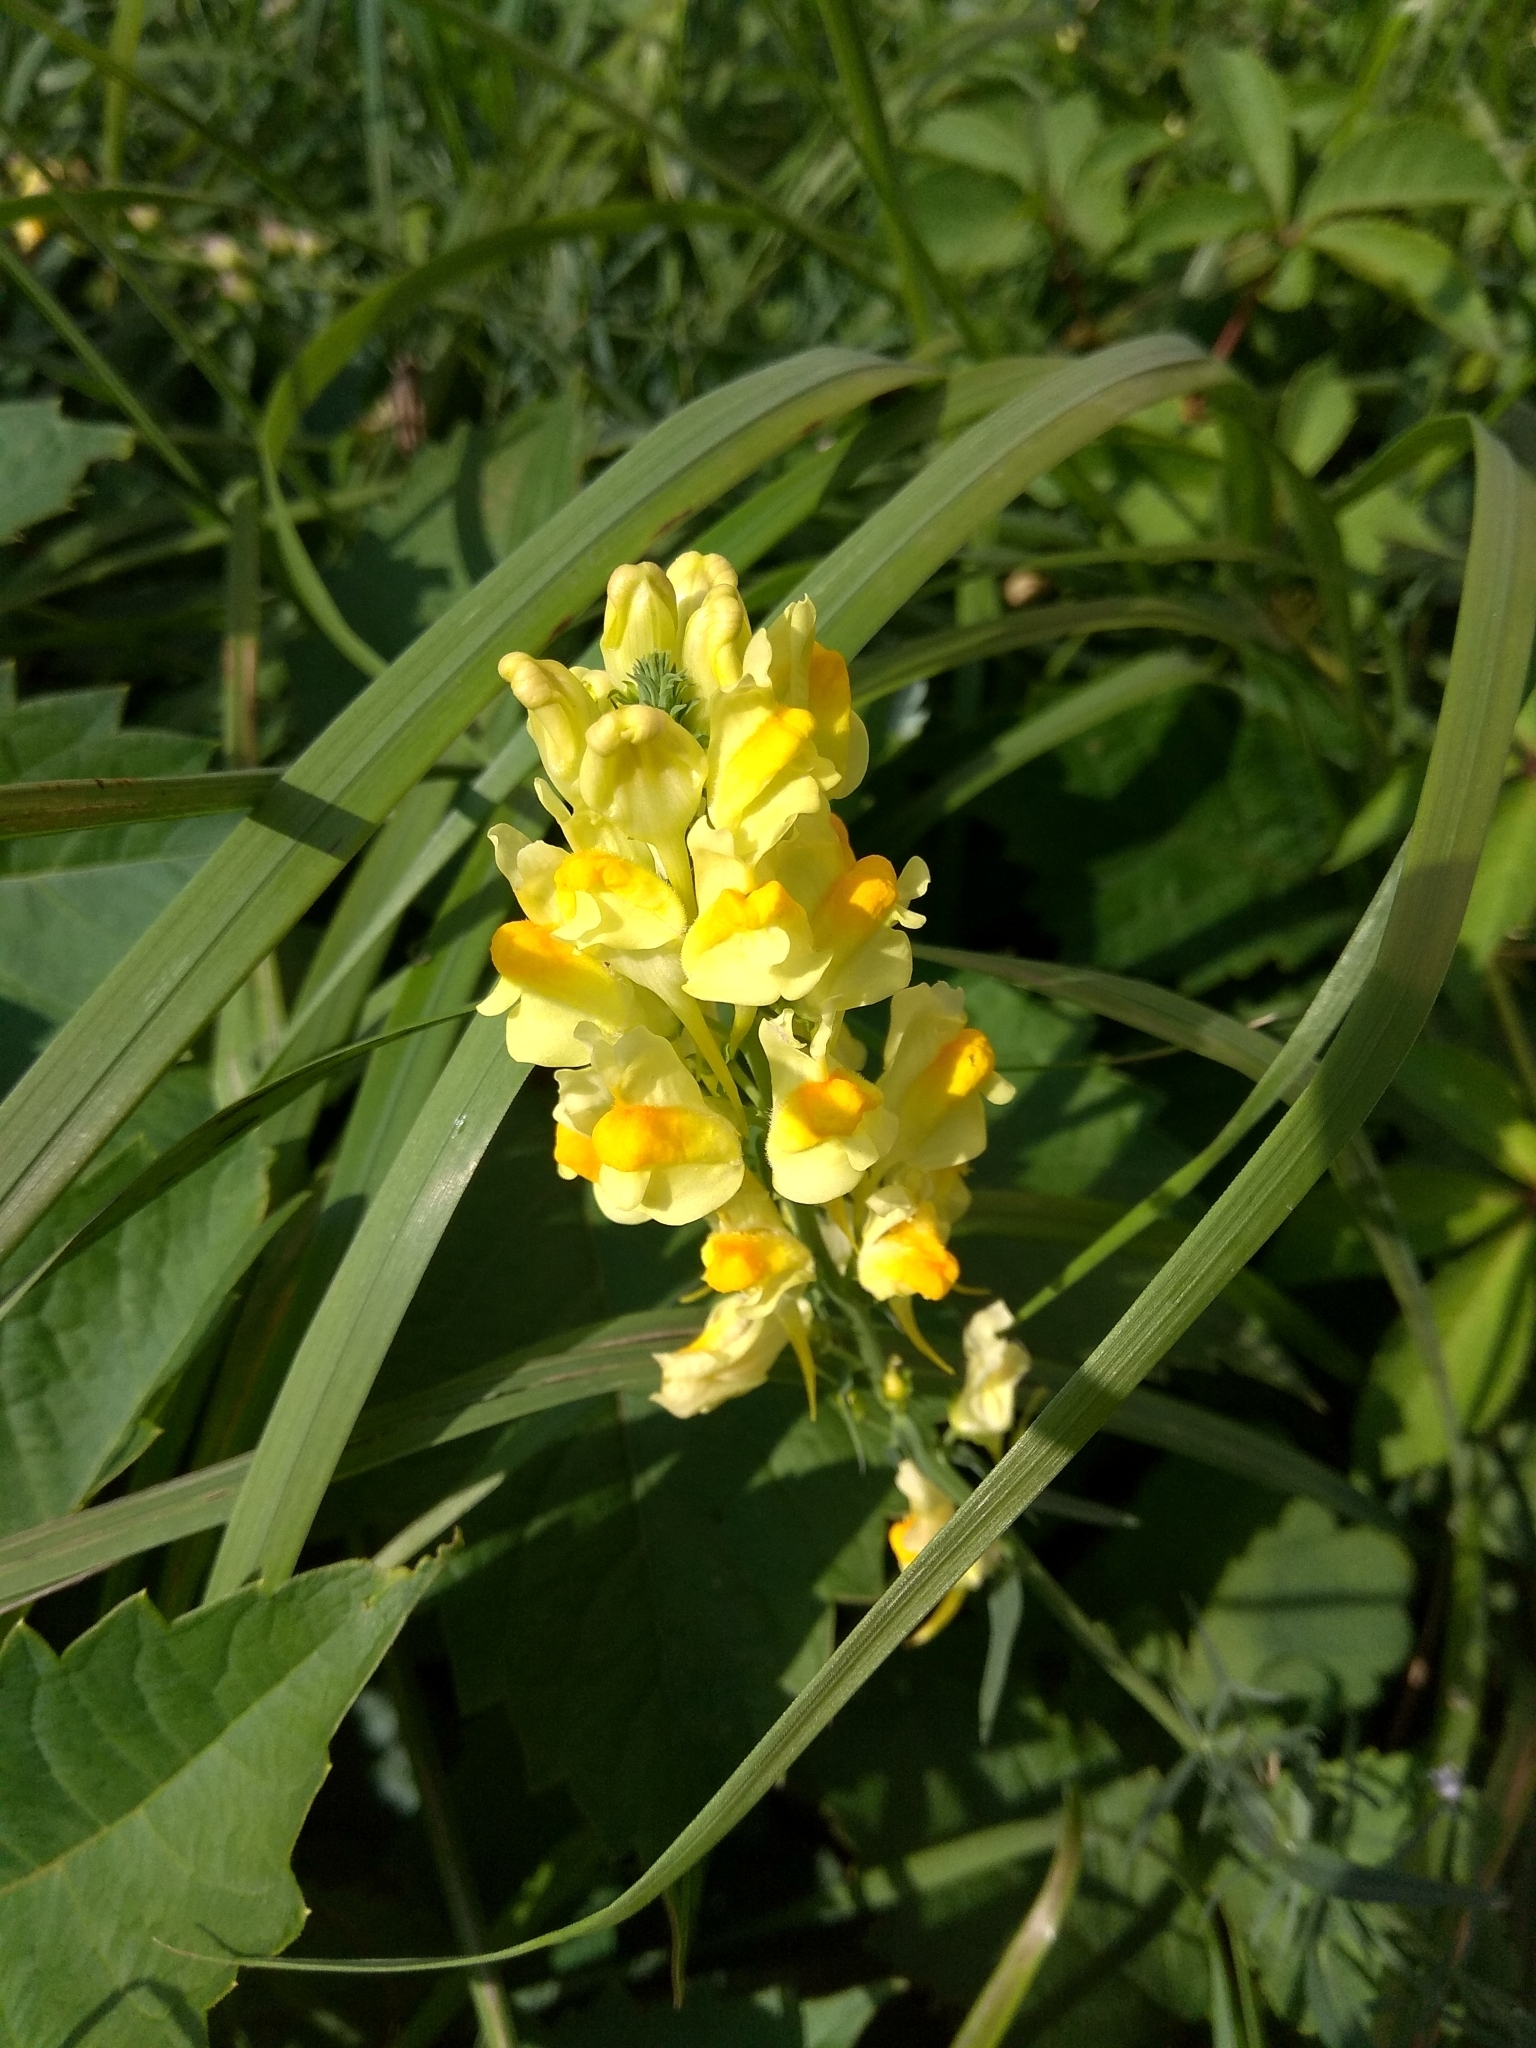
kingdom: Plantae
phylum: Tracheophyta
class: Magnoliopsida
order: Lamiales
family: Plantaginaceae
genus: Linaria
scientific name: Linaria vulgaris
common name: Butter and eggs
